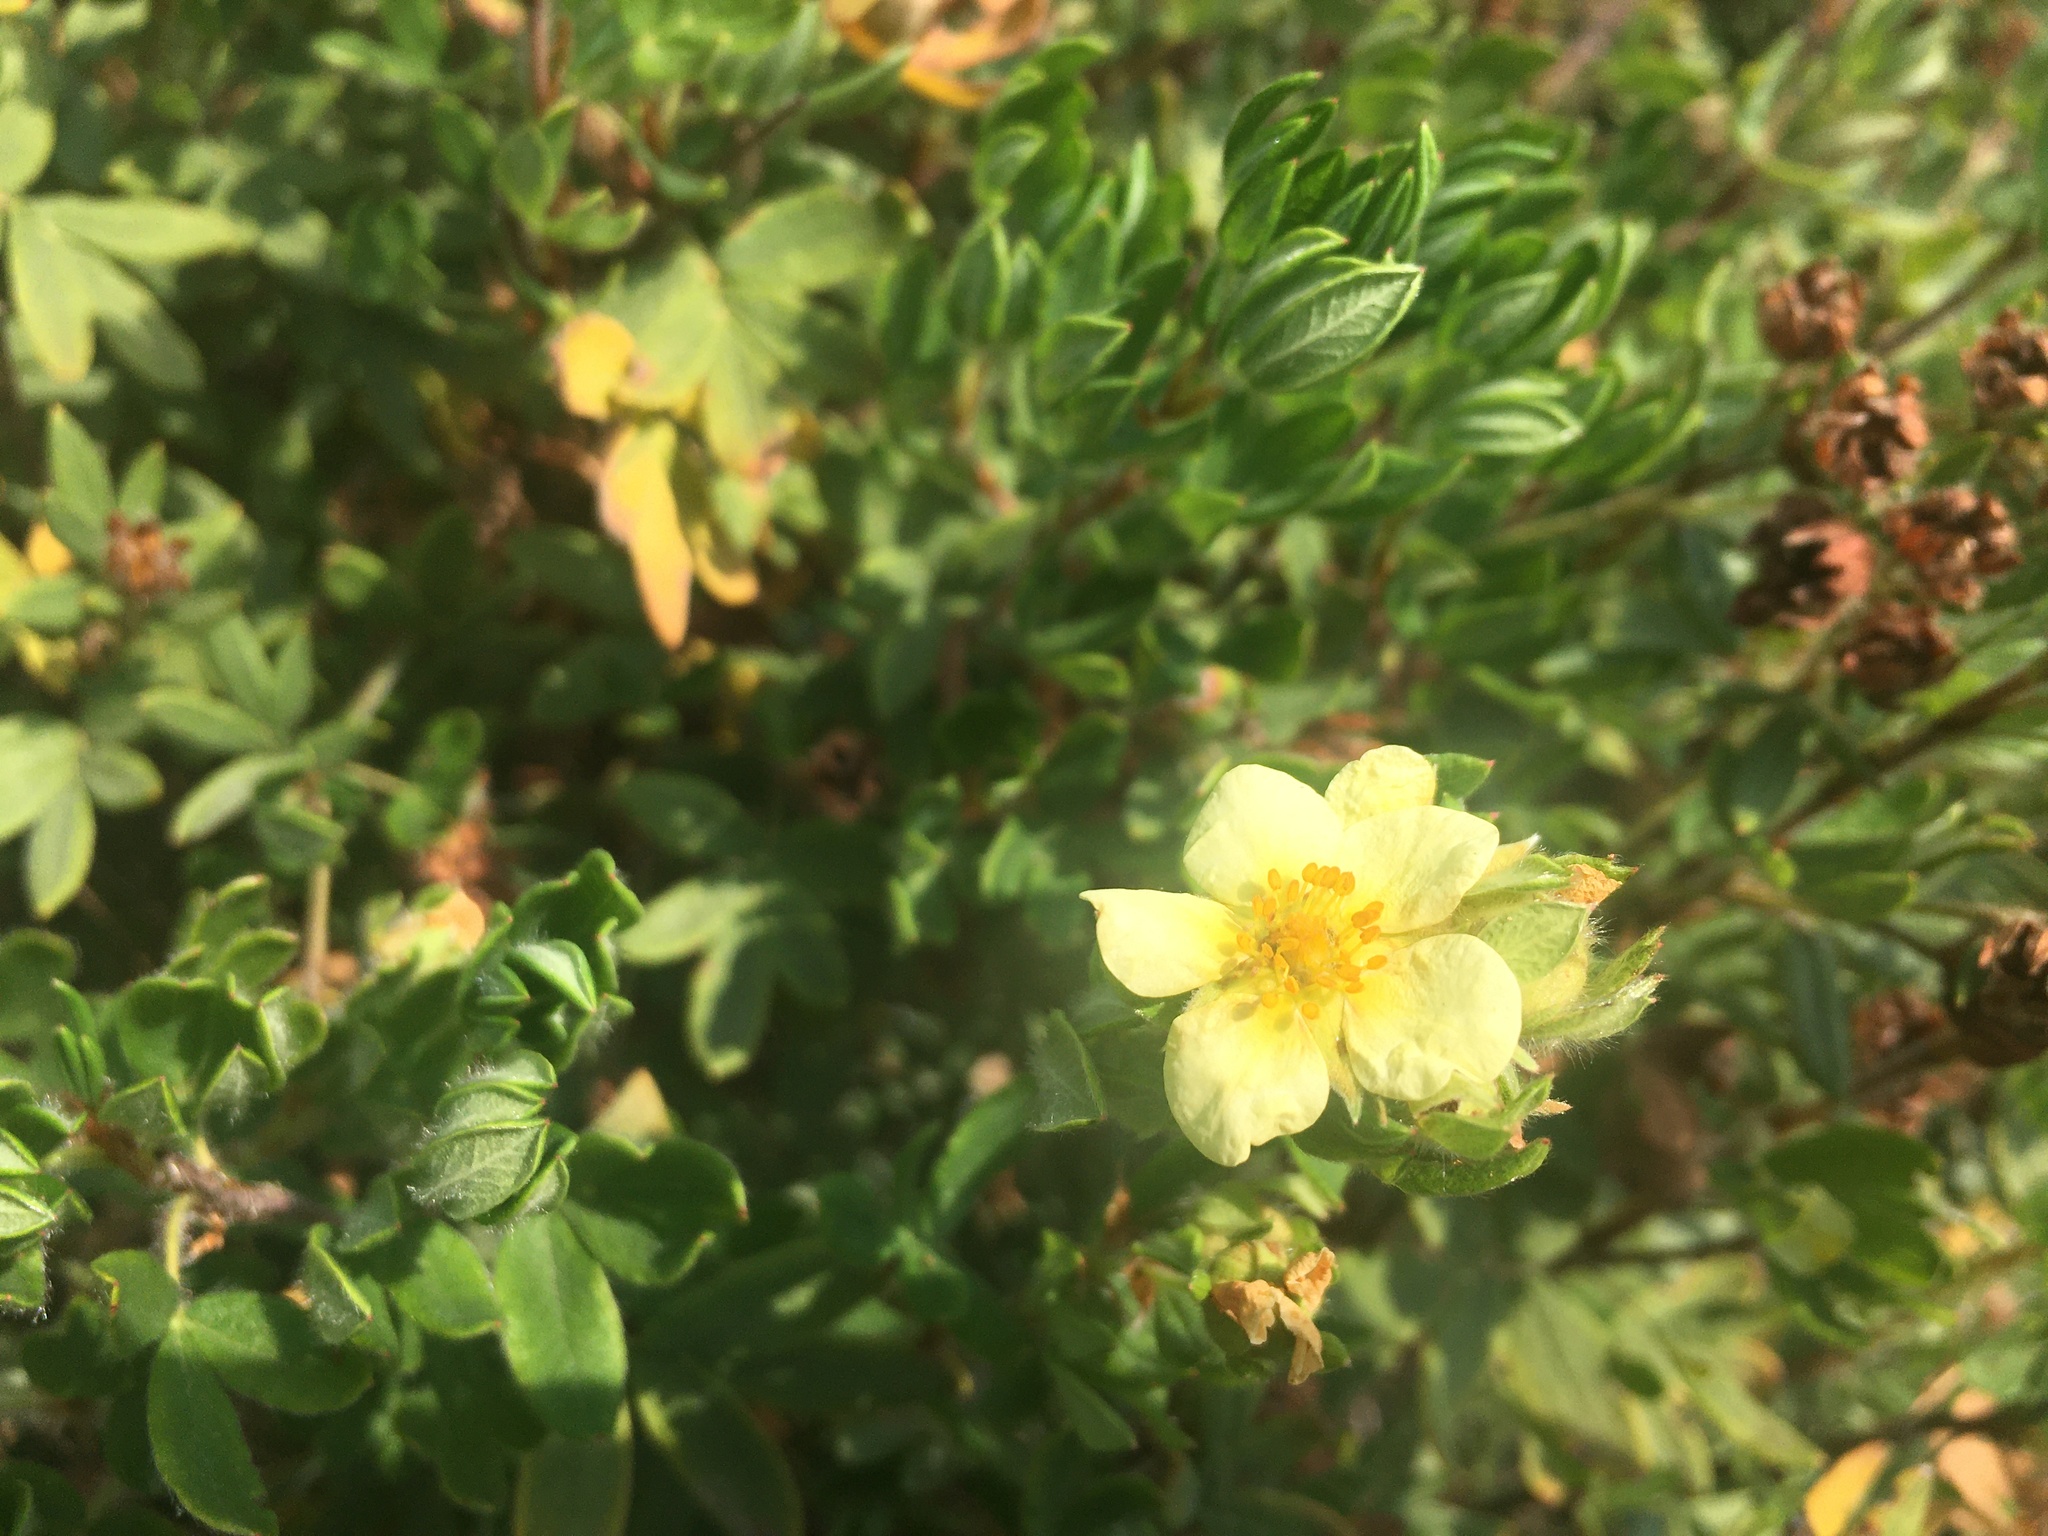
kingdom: Plantae
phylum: Tracheophyta
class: Magnoliopsida
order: Rosales
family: Rosaceae
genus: Dasiphora
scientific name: Dasiphora fruticosa
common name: Shrubby cinquefoil
